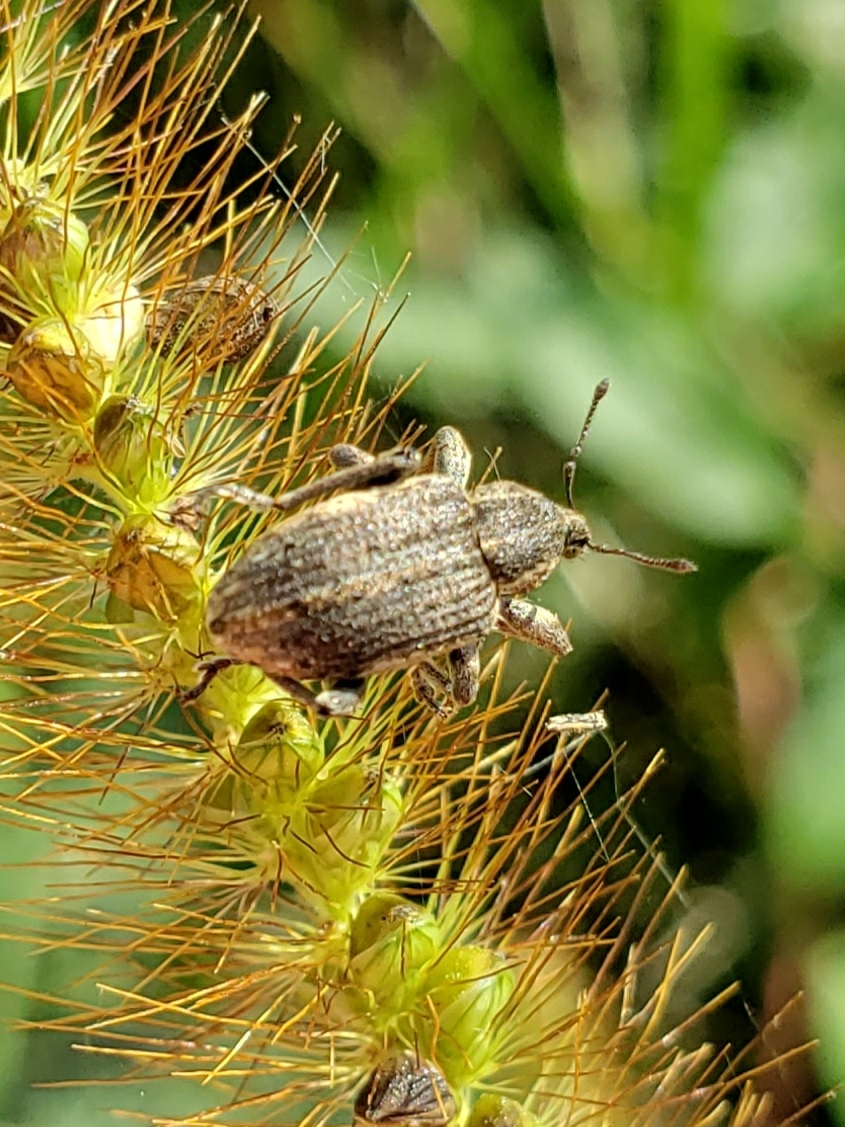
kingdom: Animalia
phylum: Arthropoda
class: Insecta
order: Coleoptera
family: Curculionidae
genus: Brachypera
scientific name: Brachypera zoilus
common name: Clover leaf weevil
